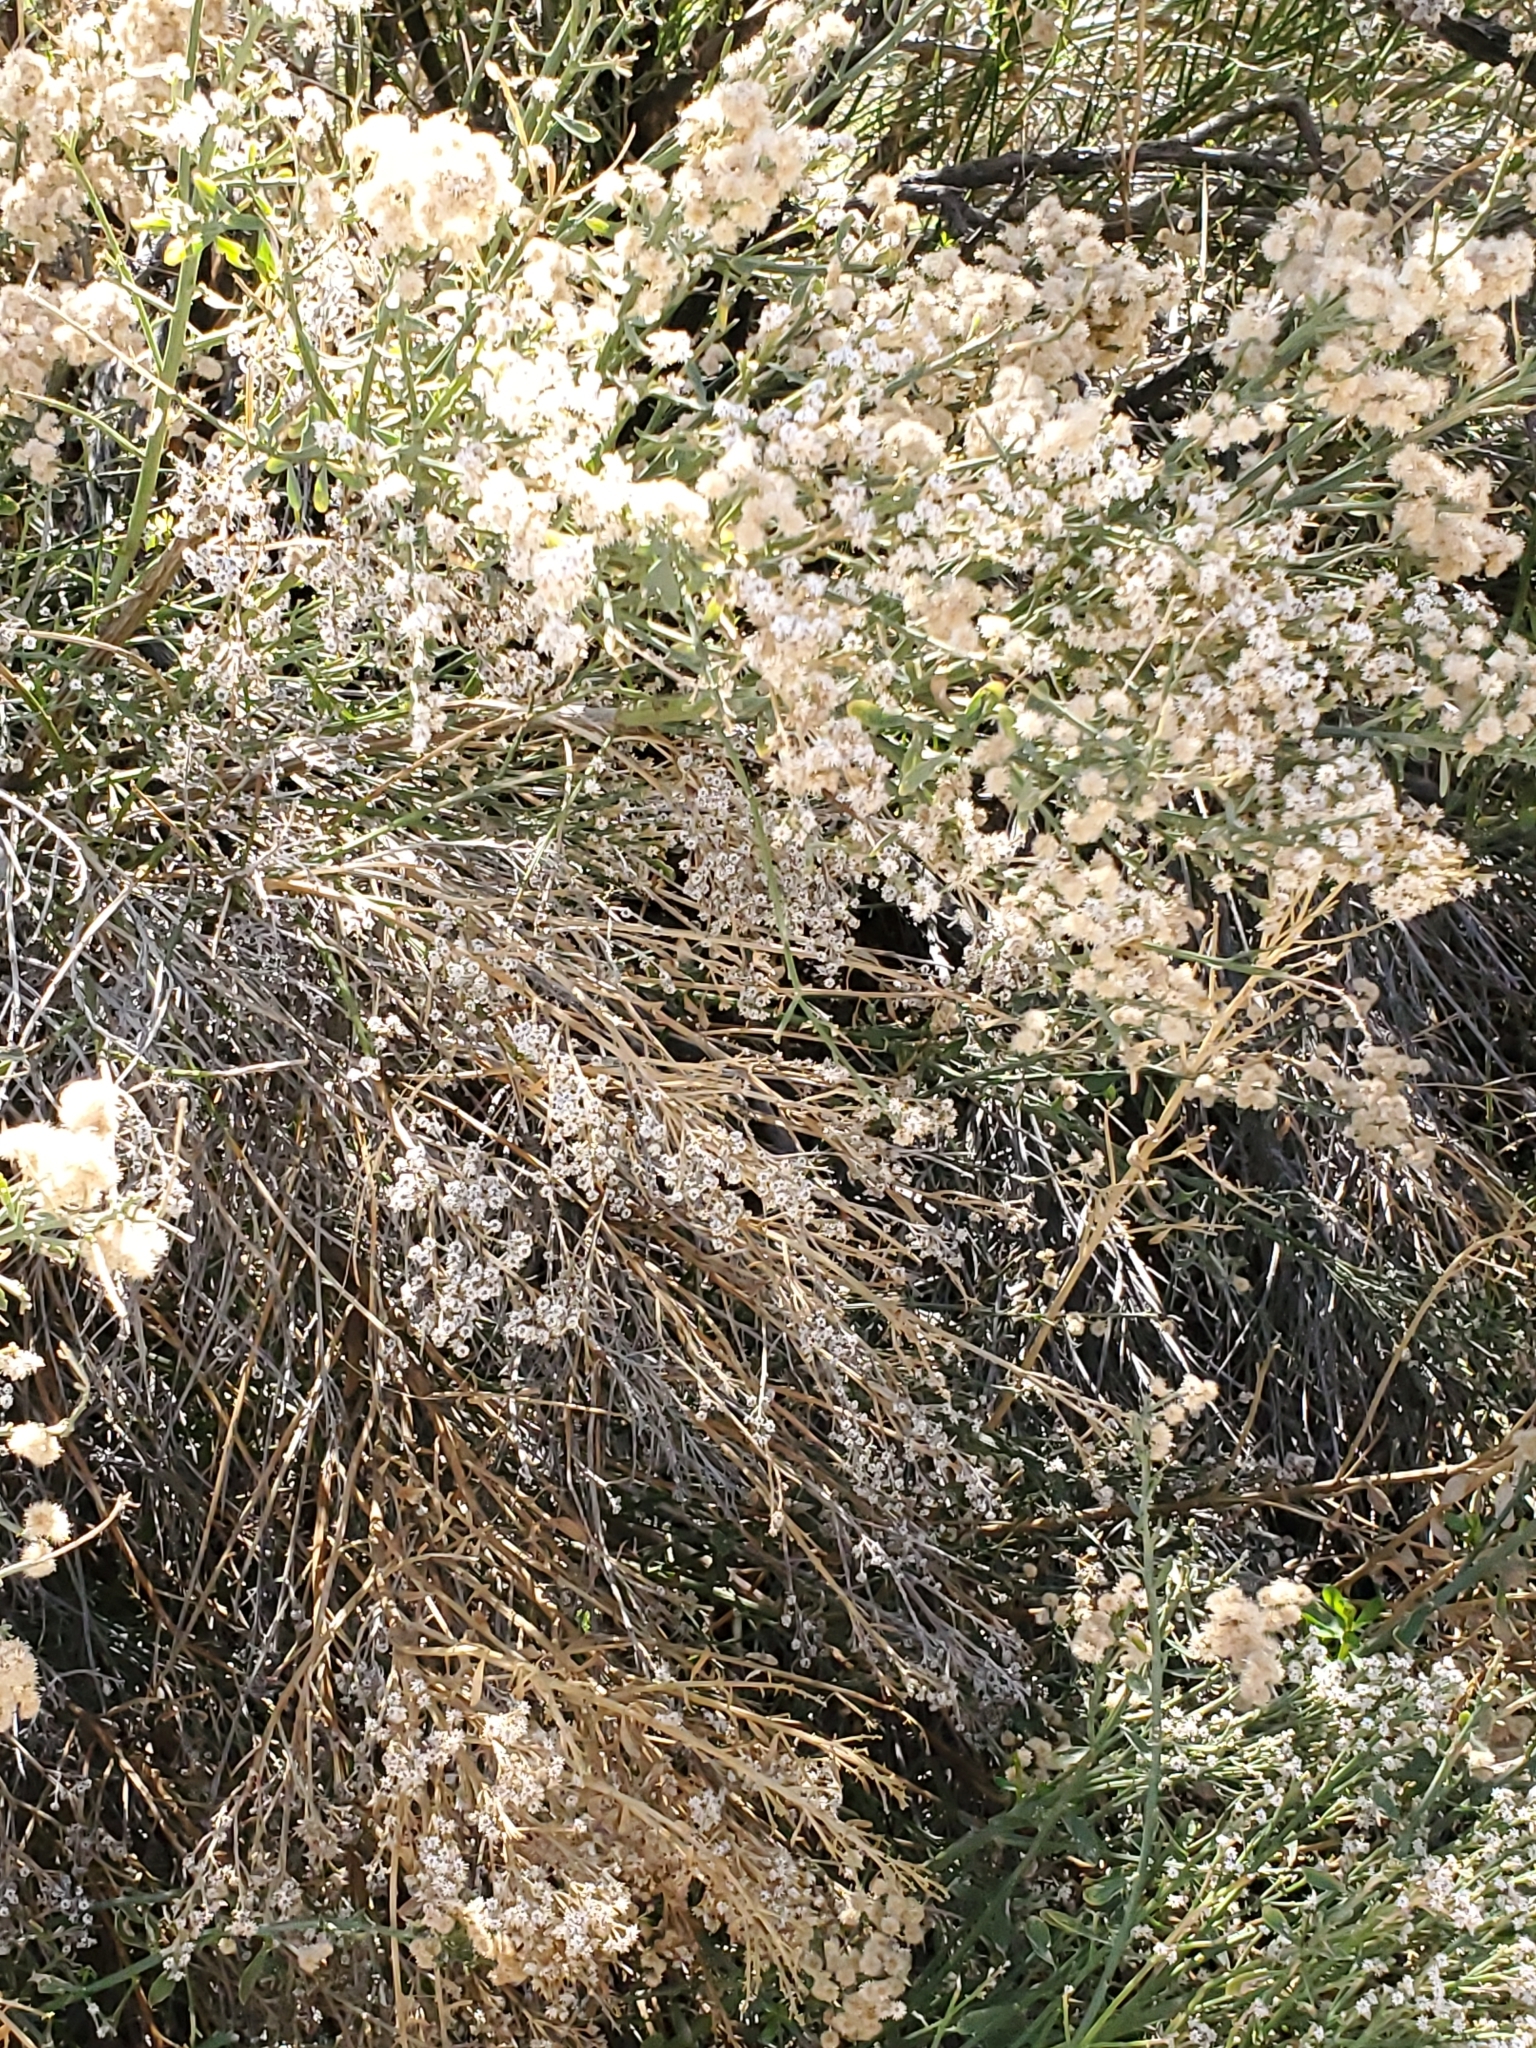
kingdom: Plantae
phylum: Tracheophyta
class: Magnoliopsida
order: Asterales
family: Asteraceae
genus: Baccharis
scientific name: Baccharis sergiloides
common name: Desert baccharis
